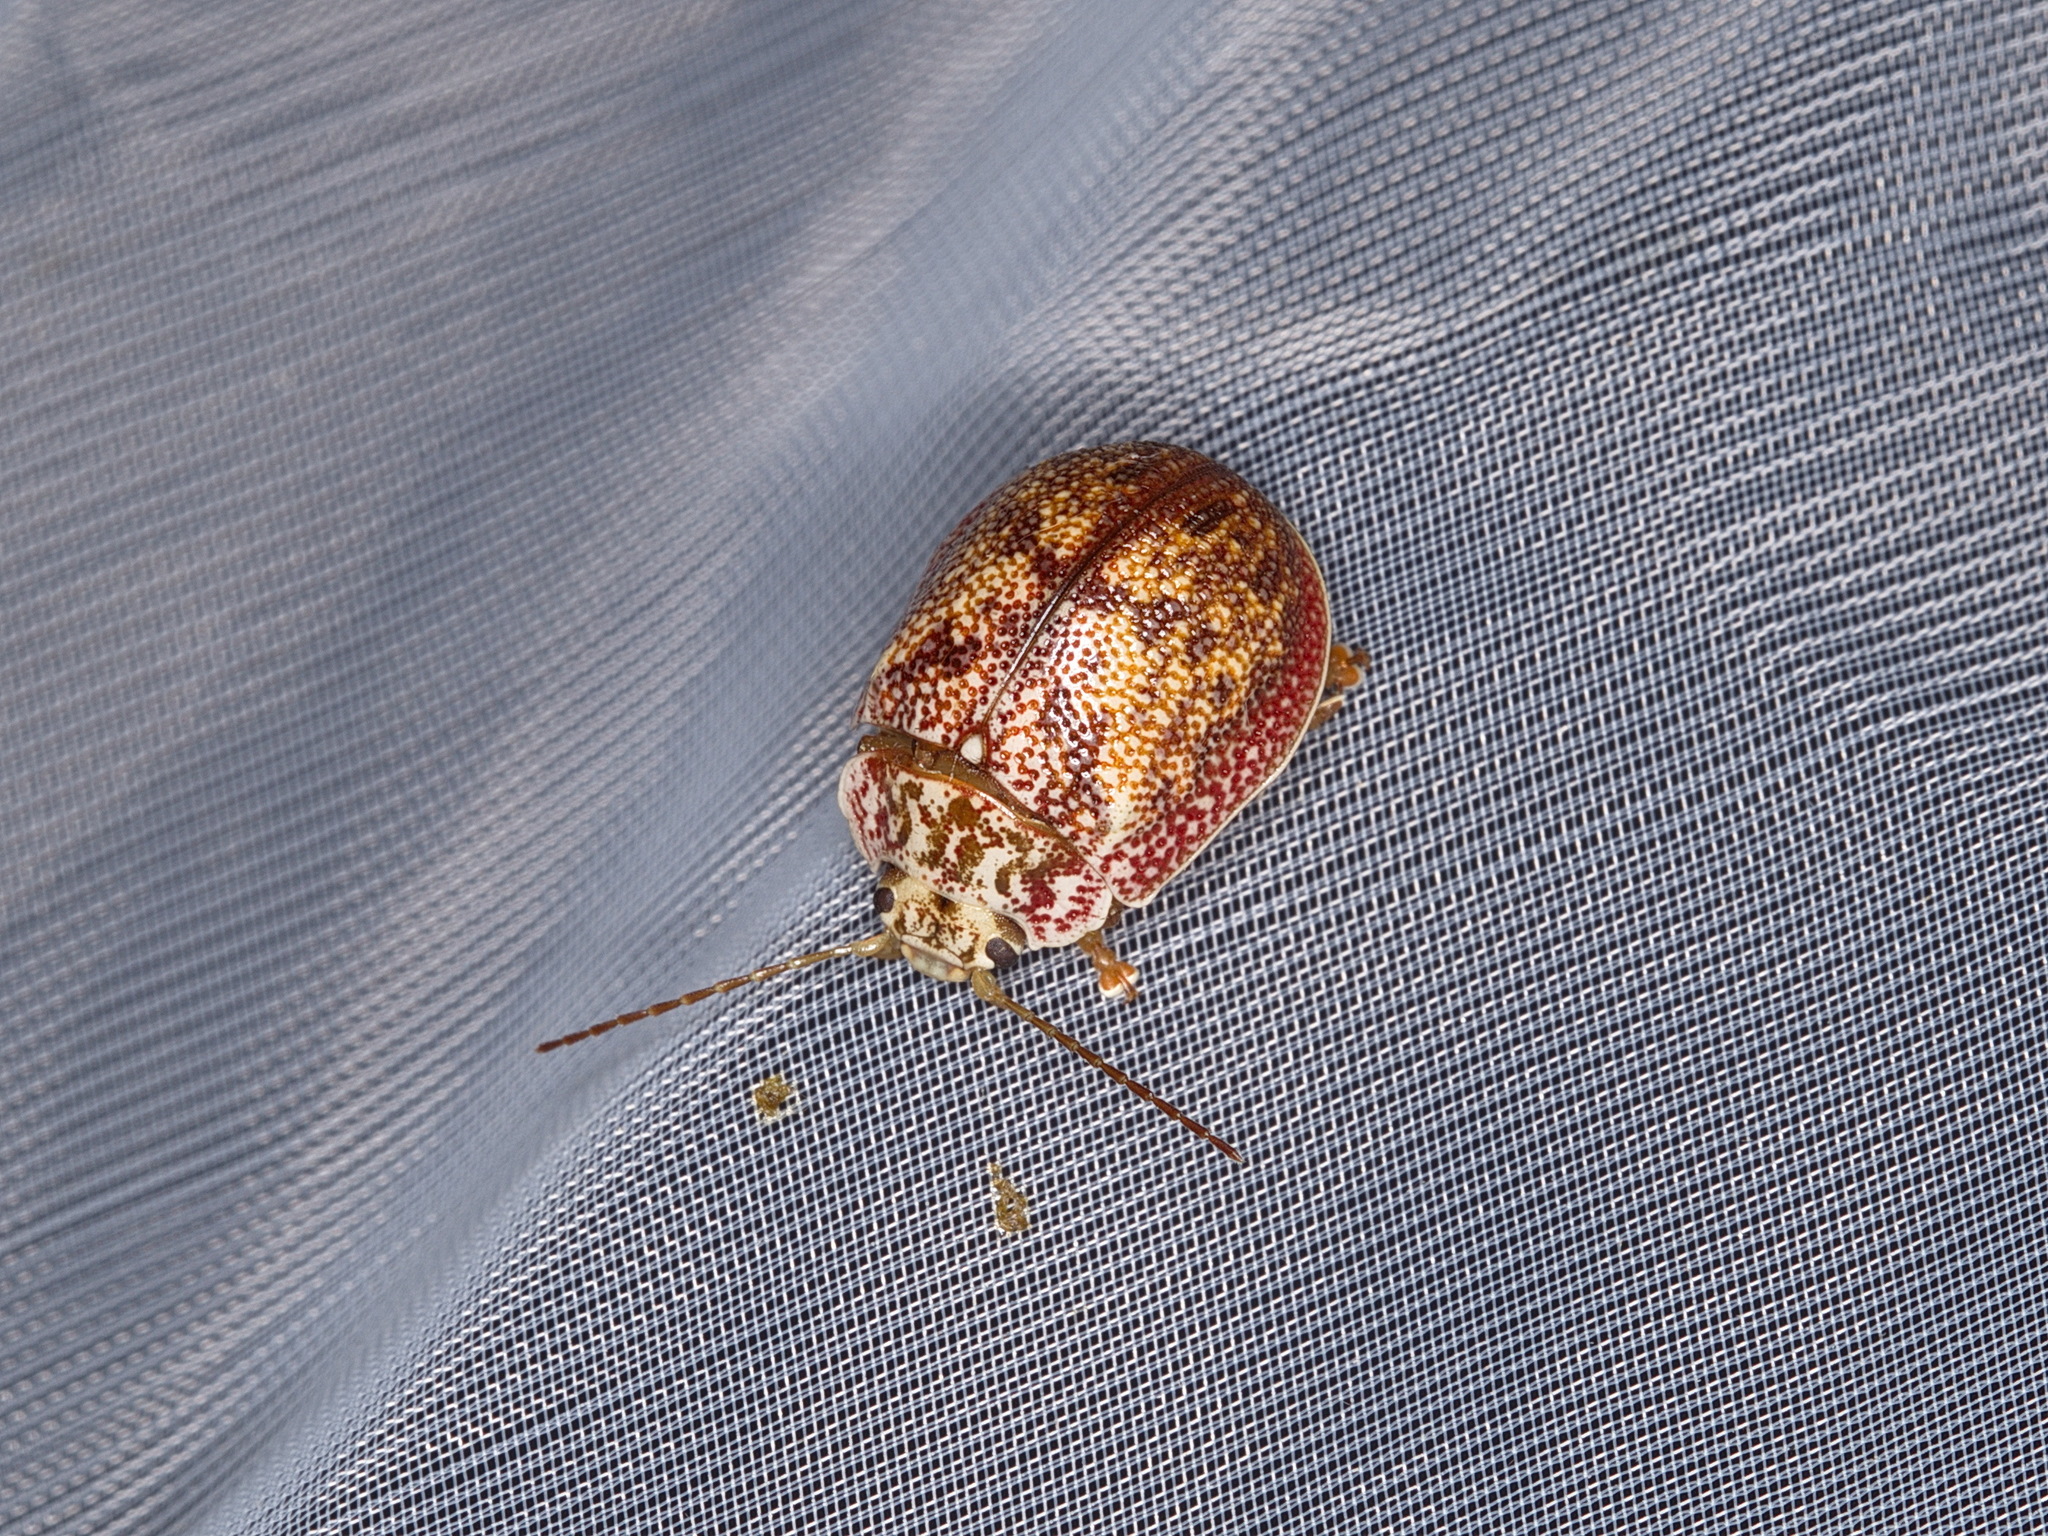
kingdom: Animalia
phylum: Arthropoda
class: Insecta
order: Coleoptera
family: Chrysomelidae
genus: Paropsis
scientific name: Paropsis charybdis
